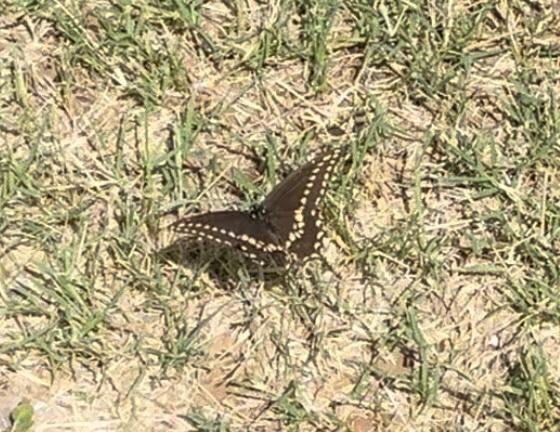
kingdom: Animalia
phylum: Arthropoda
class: Insecta
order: Lepidoptera
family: Papilionidae
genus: Papilio
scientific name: Papilio polyxenes
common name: Black swallowtail
